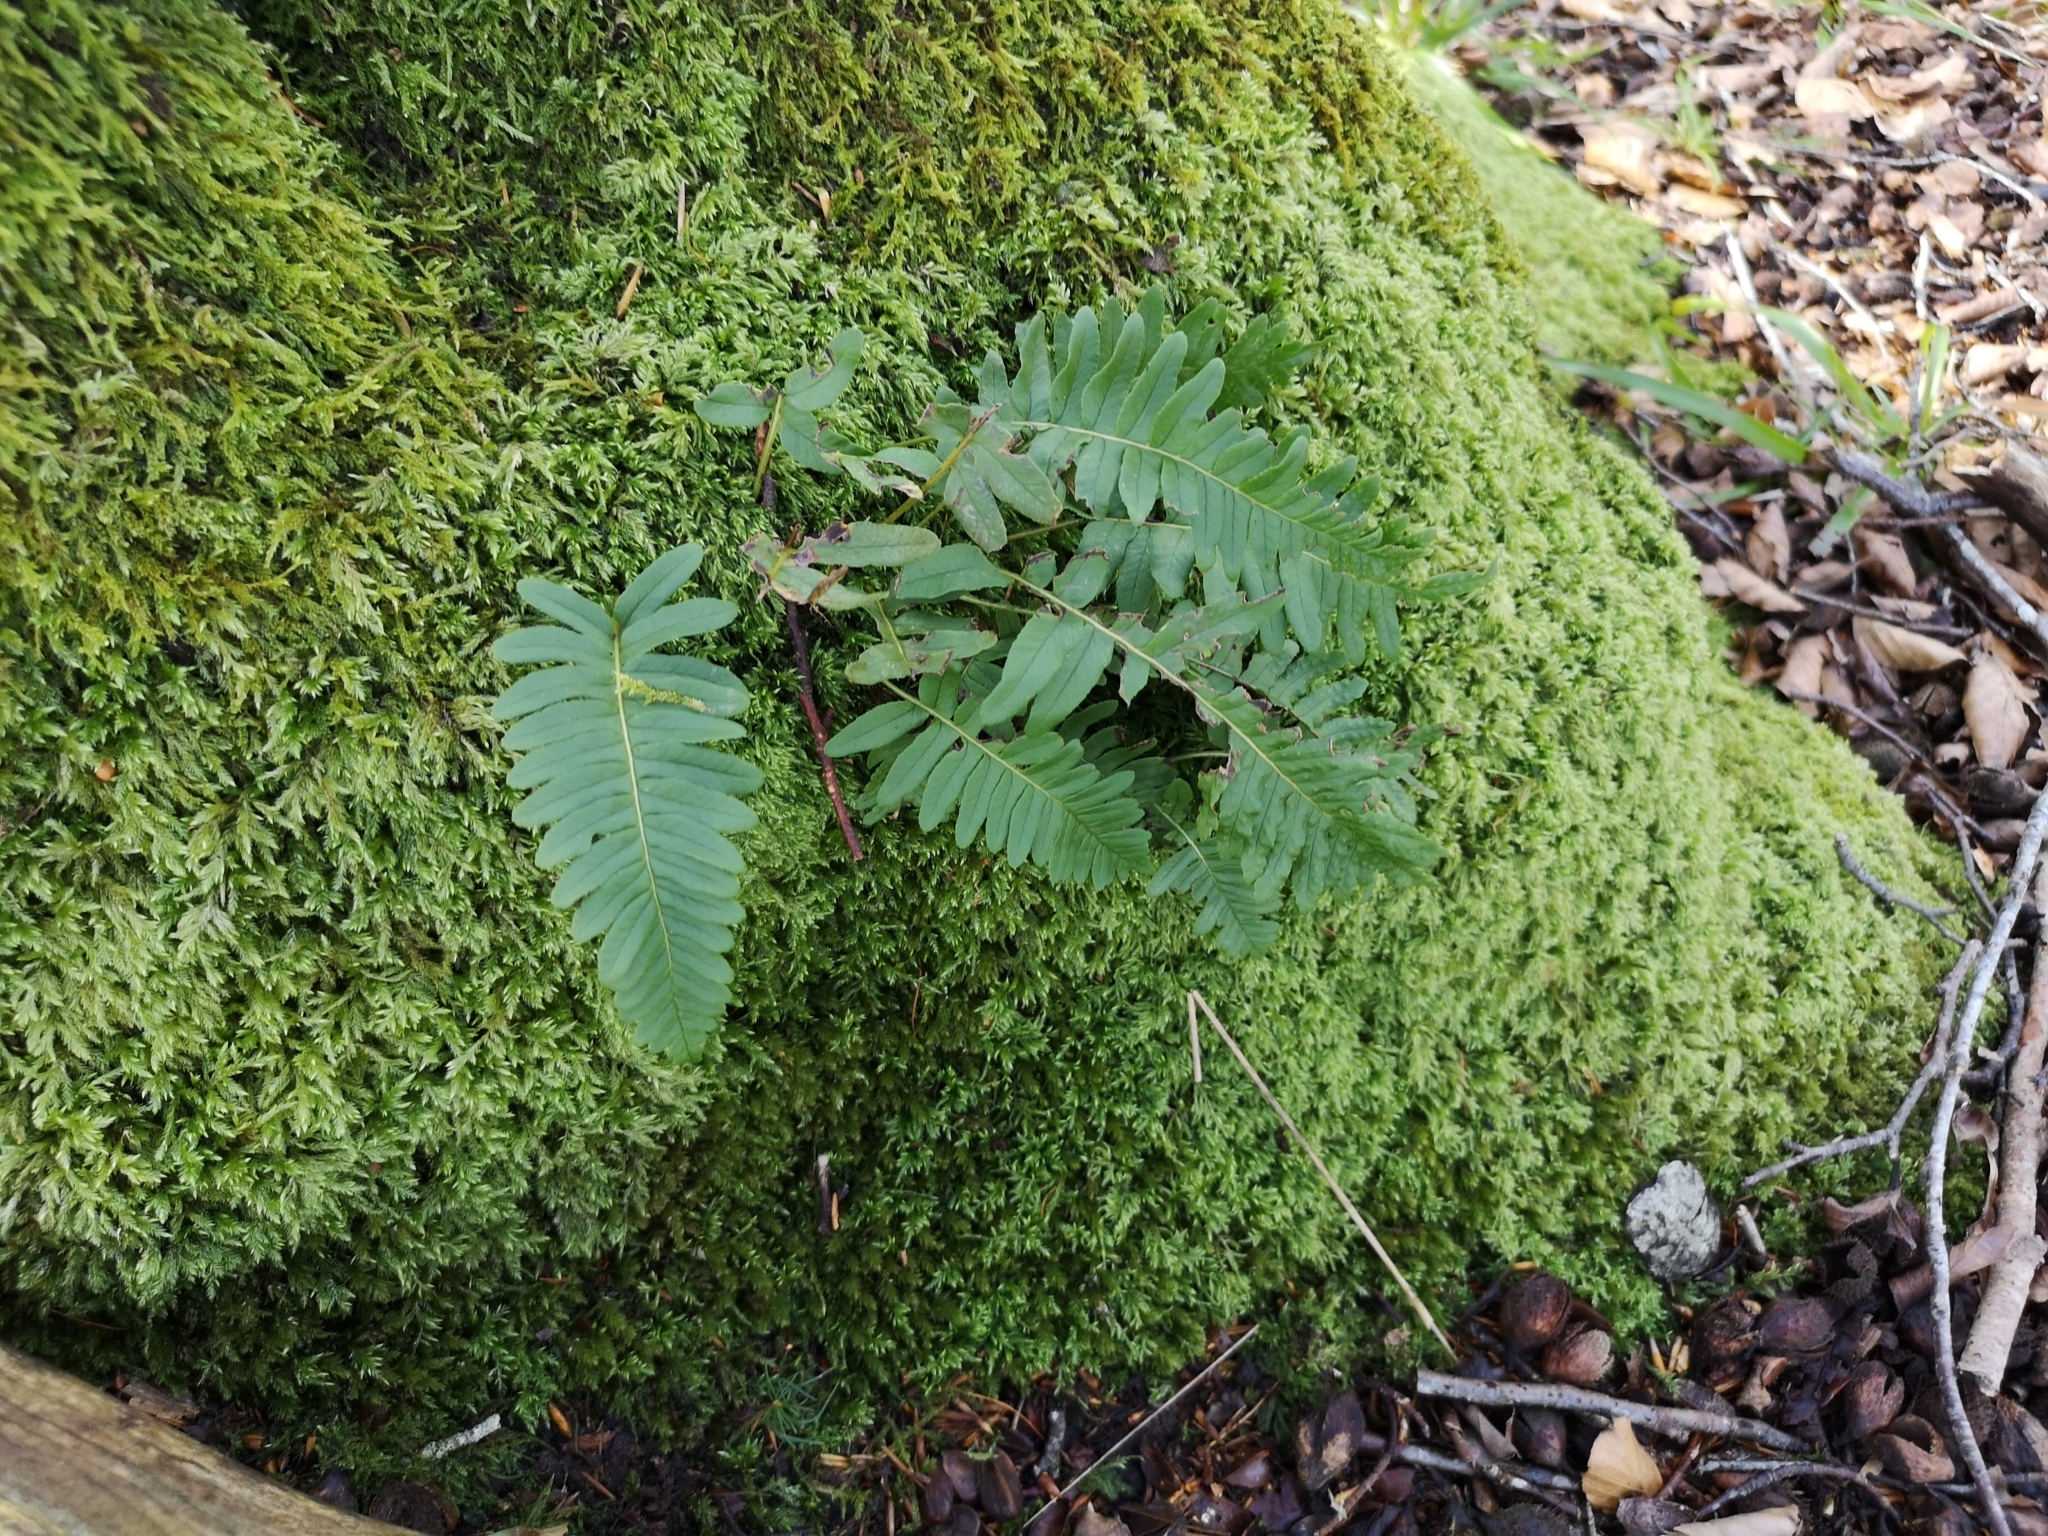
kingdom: Plantae
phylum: Tracheophyta
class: Polypodiopsida
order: Polypodiales
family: Polypodiaceae
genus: Polypodium
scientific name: Polypodium vulgare
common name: Common polypody
